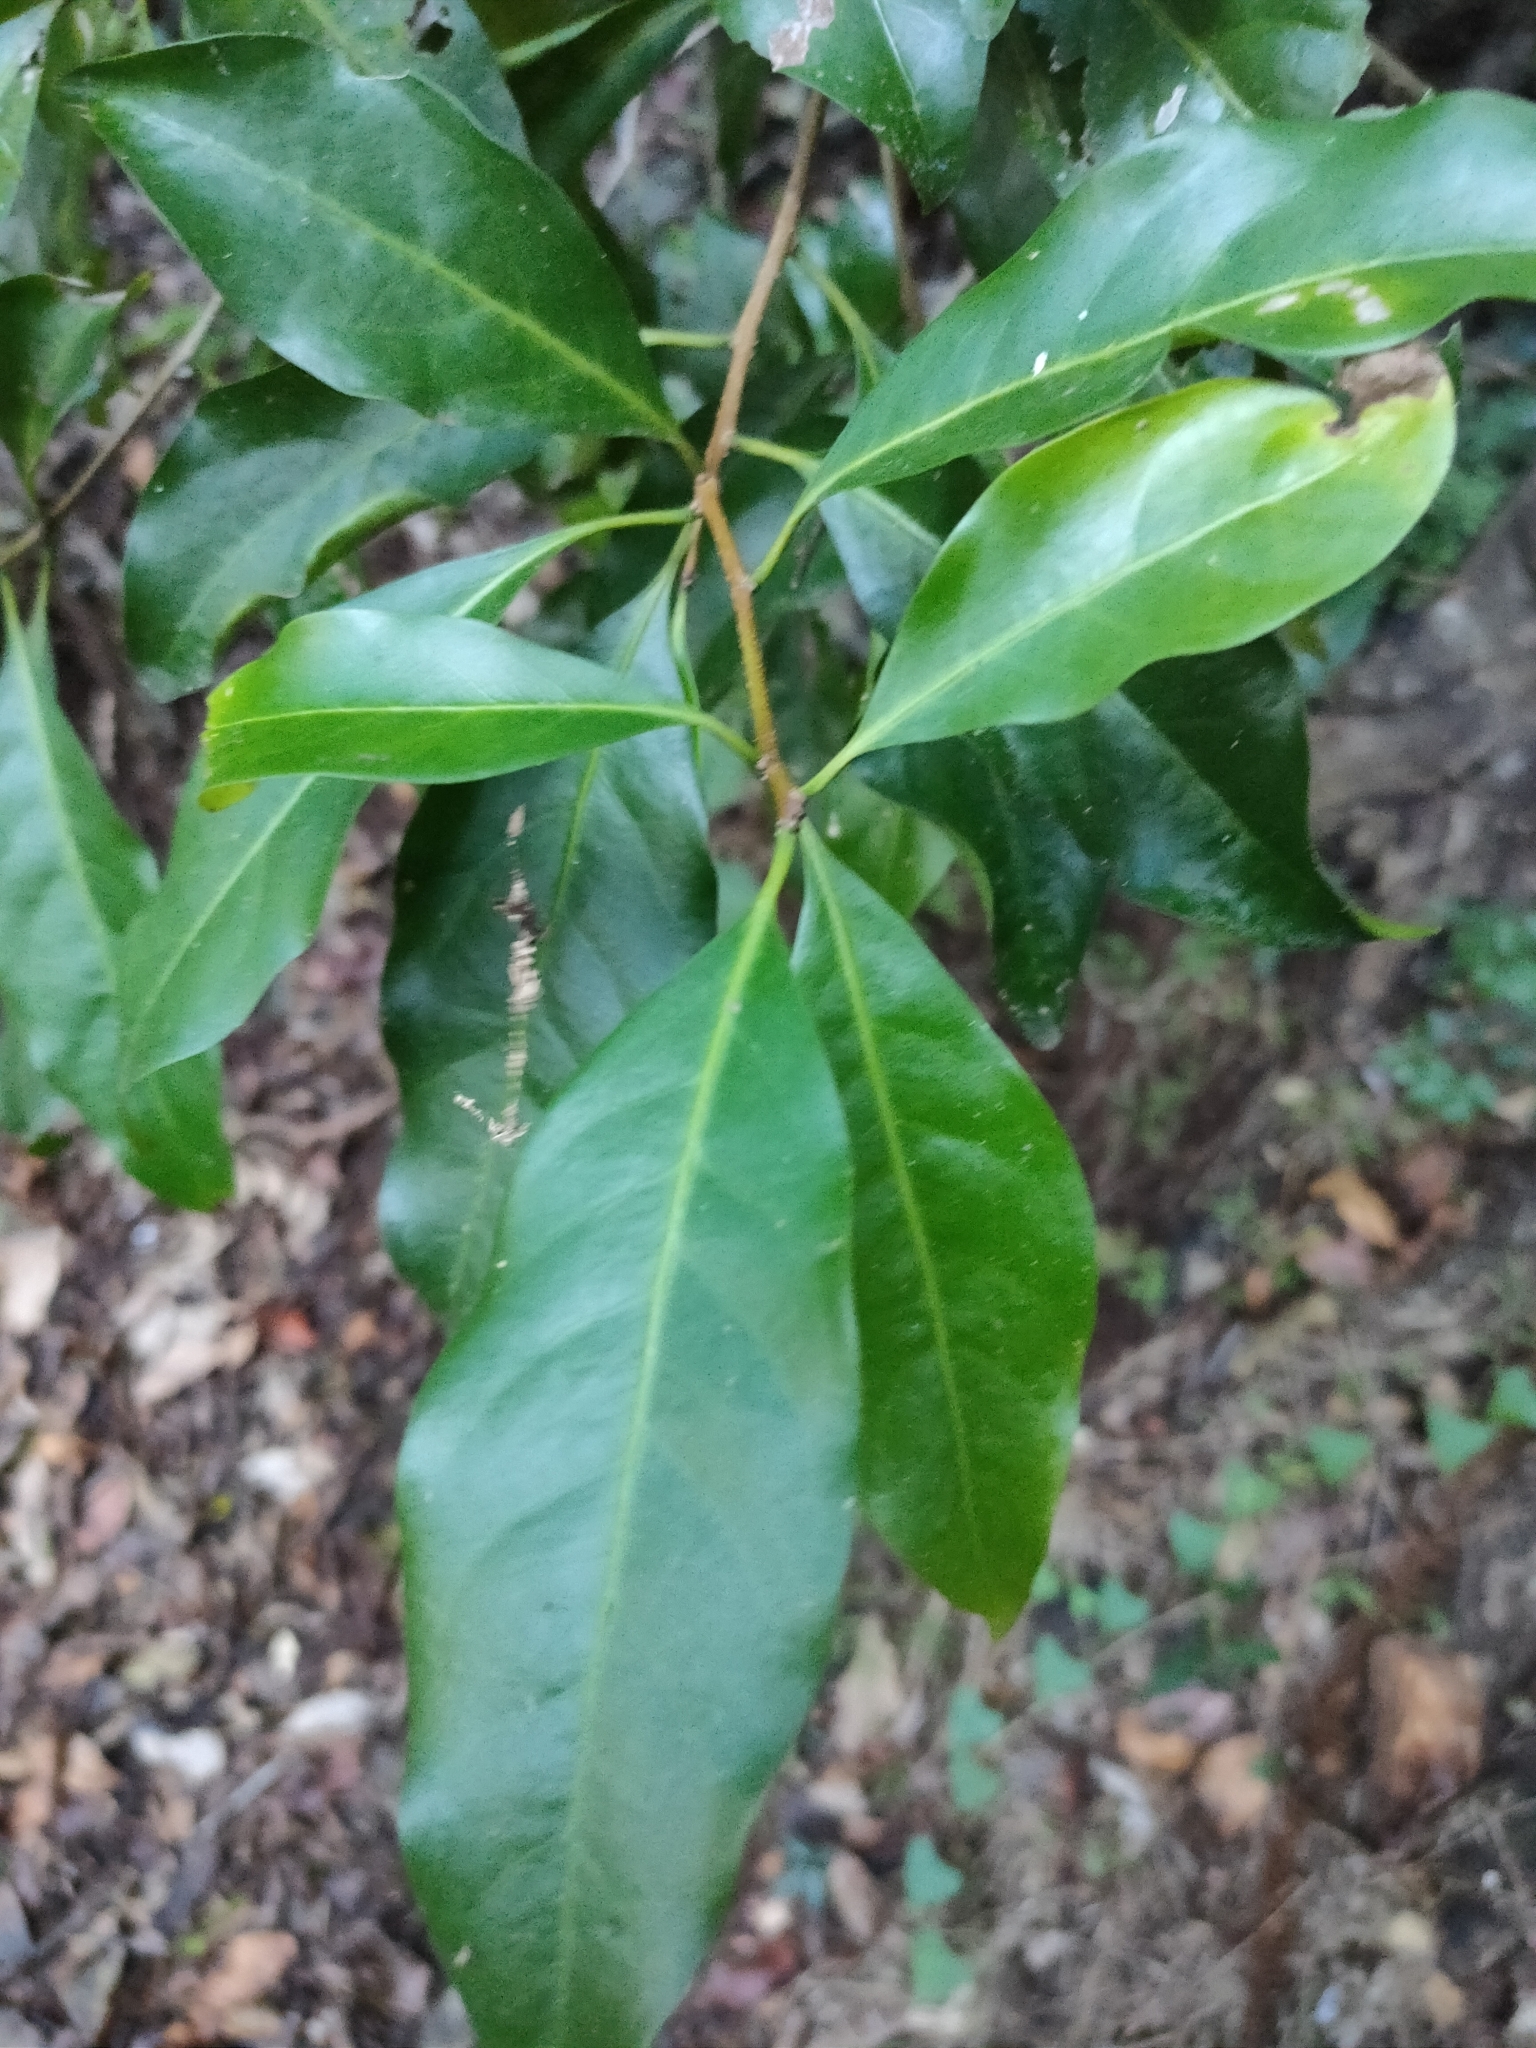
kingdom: Plantae
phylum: Tracheophyta
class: Magnoliopsida
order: Malpighiales
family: Phyllanthaceae
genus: Actephila
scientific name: Actephila mooreana
